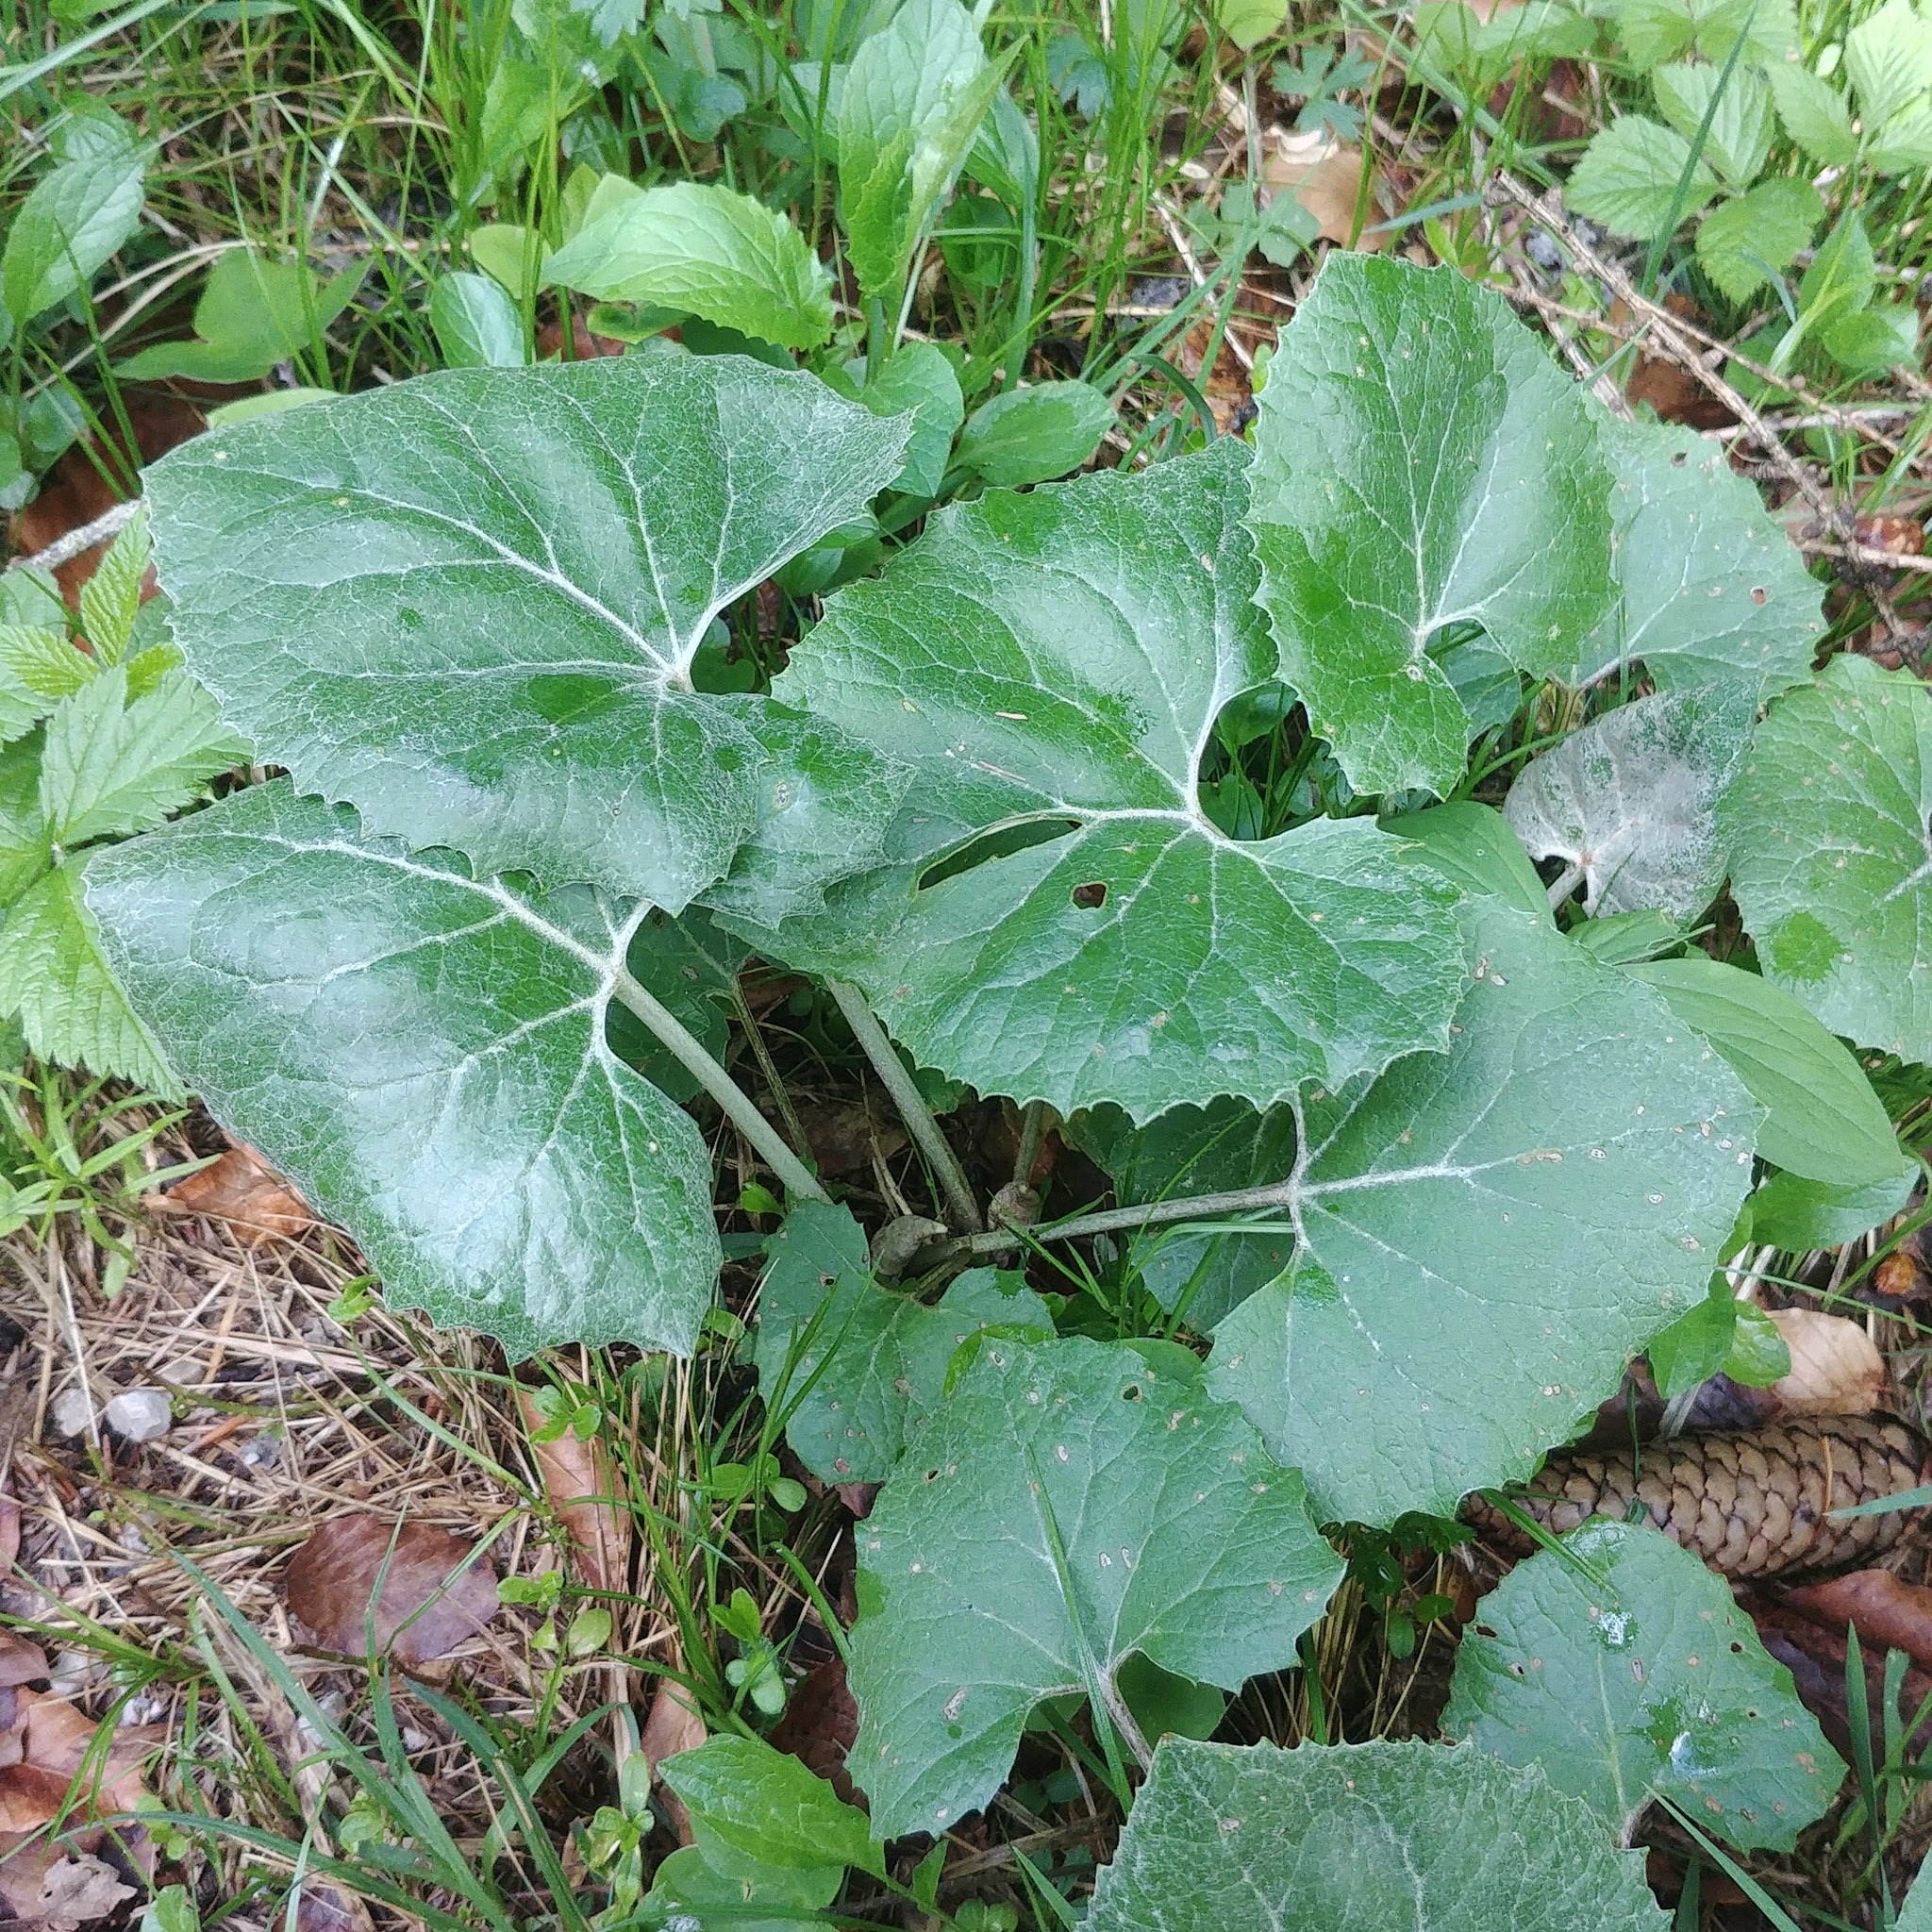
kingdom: Plantae
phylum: Tracheophyta
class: Magnoliopsida
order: Asterales
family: Asteraceae
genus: Petasites
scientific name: Petasites paradoxus
